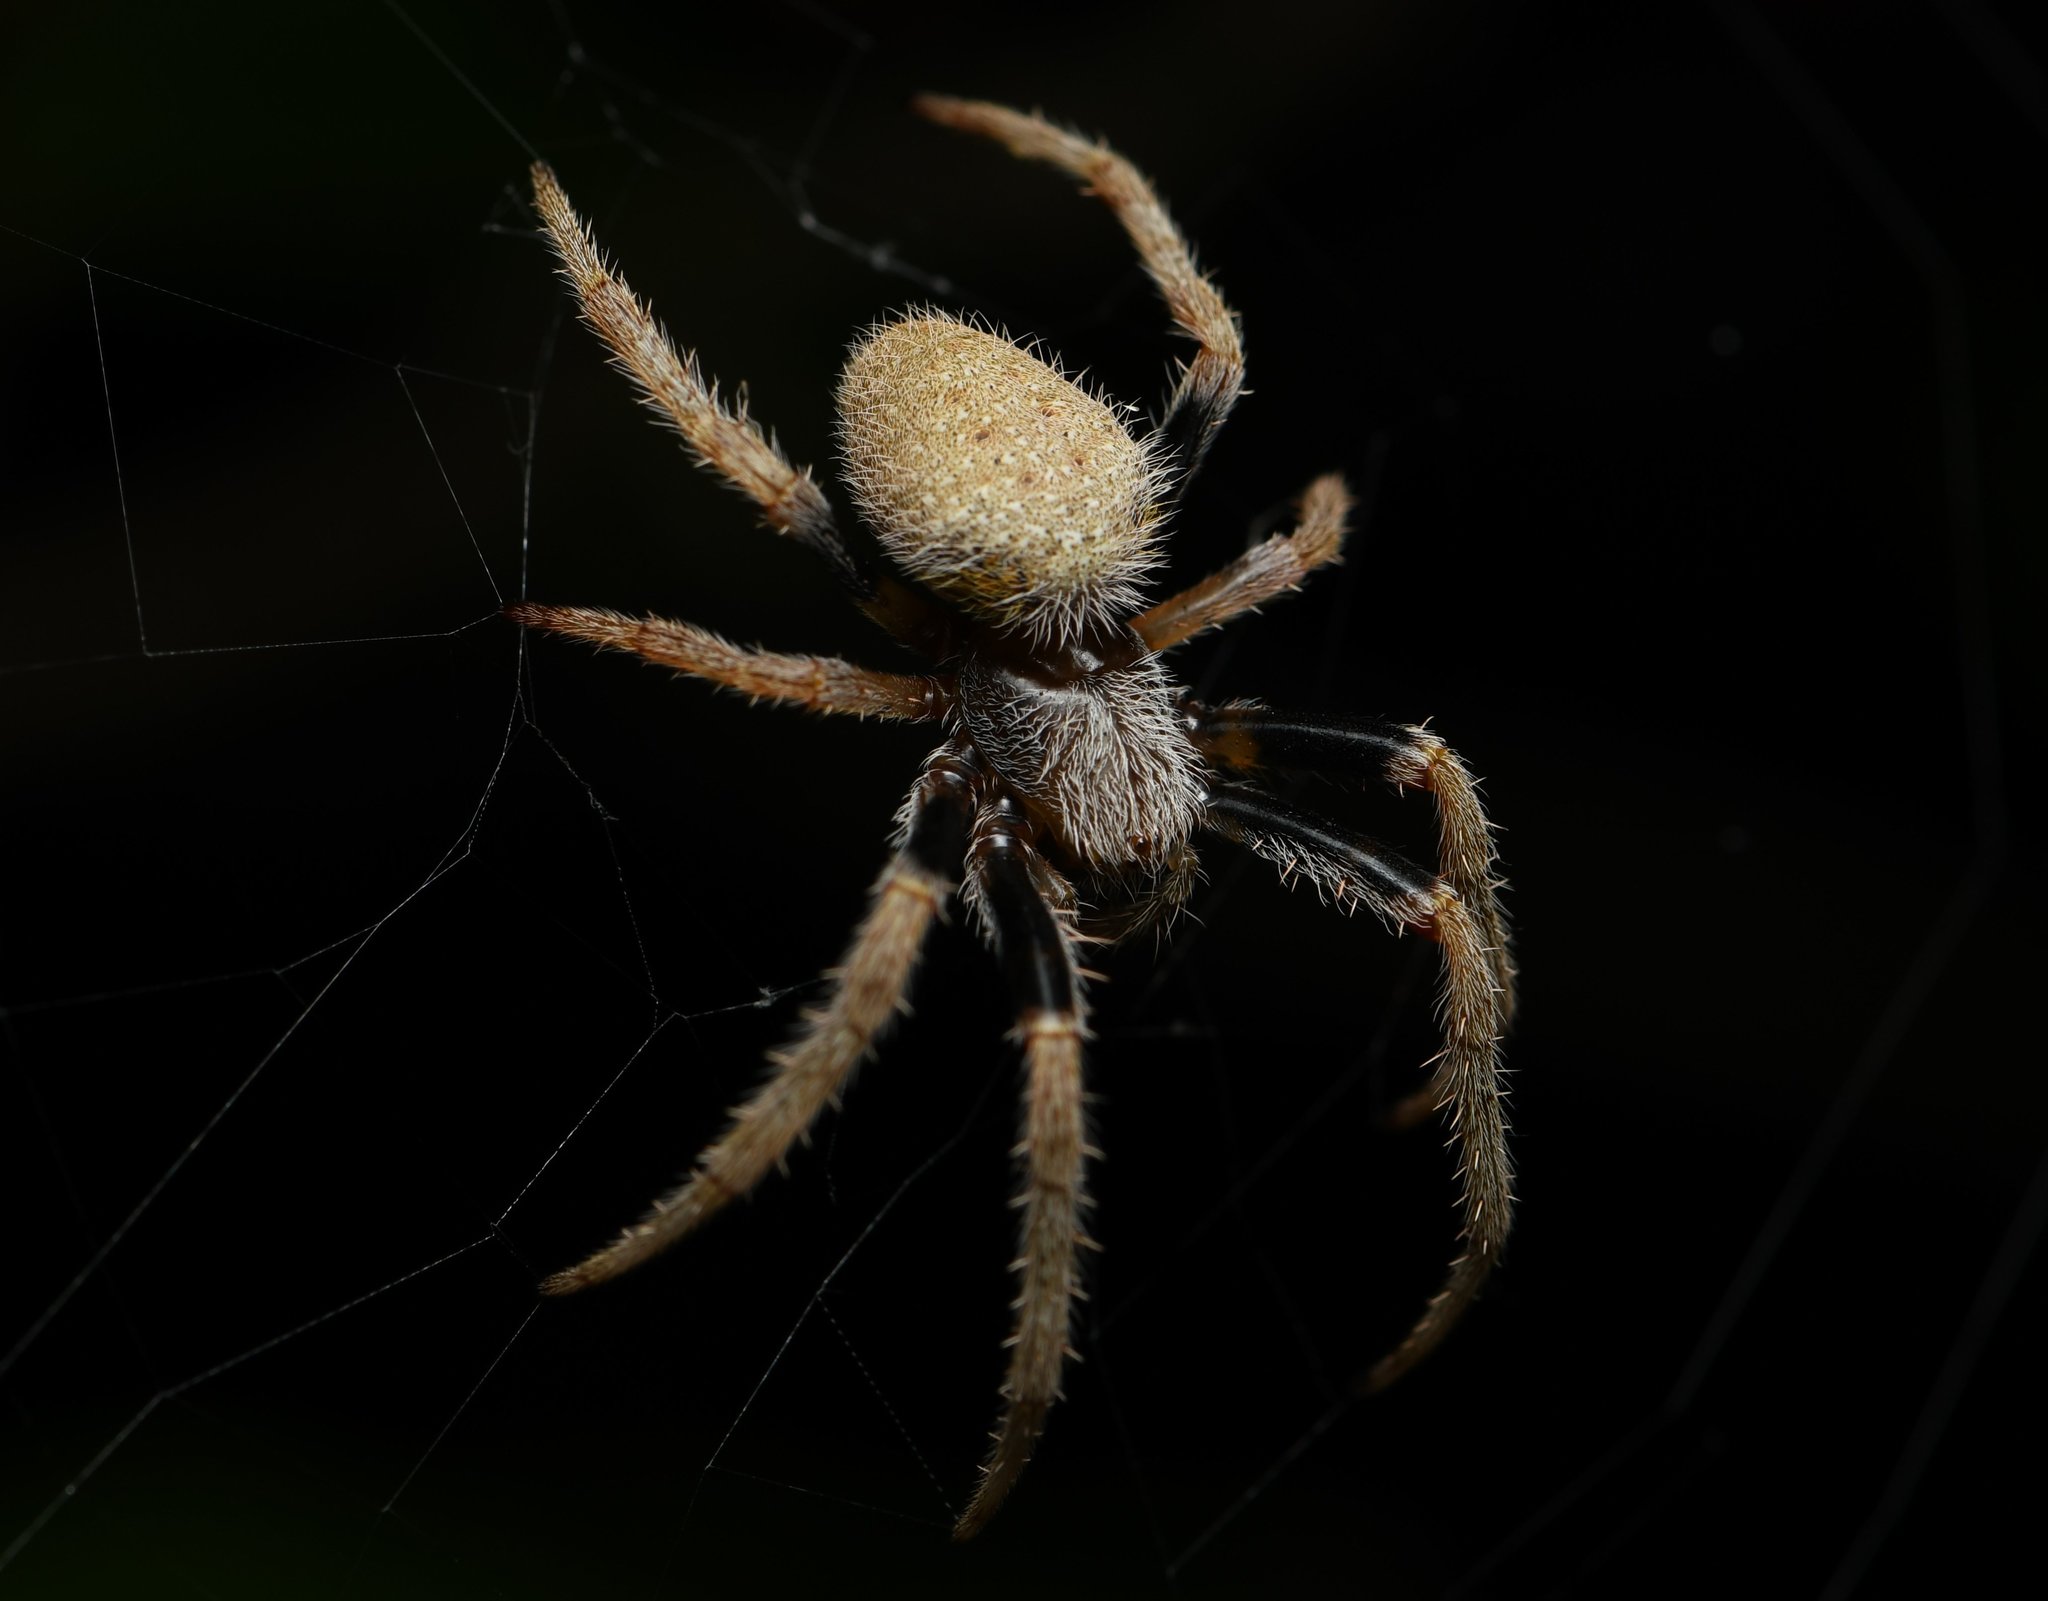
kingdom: Animalia
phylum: Arthropoda
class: Arachnida
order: Araneae
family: Araneidae
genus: Eriophora
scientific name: Eriophora ravilla
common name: Orb weavers
